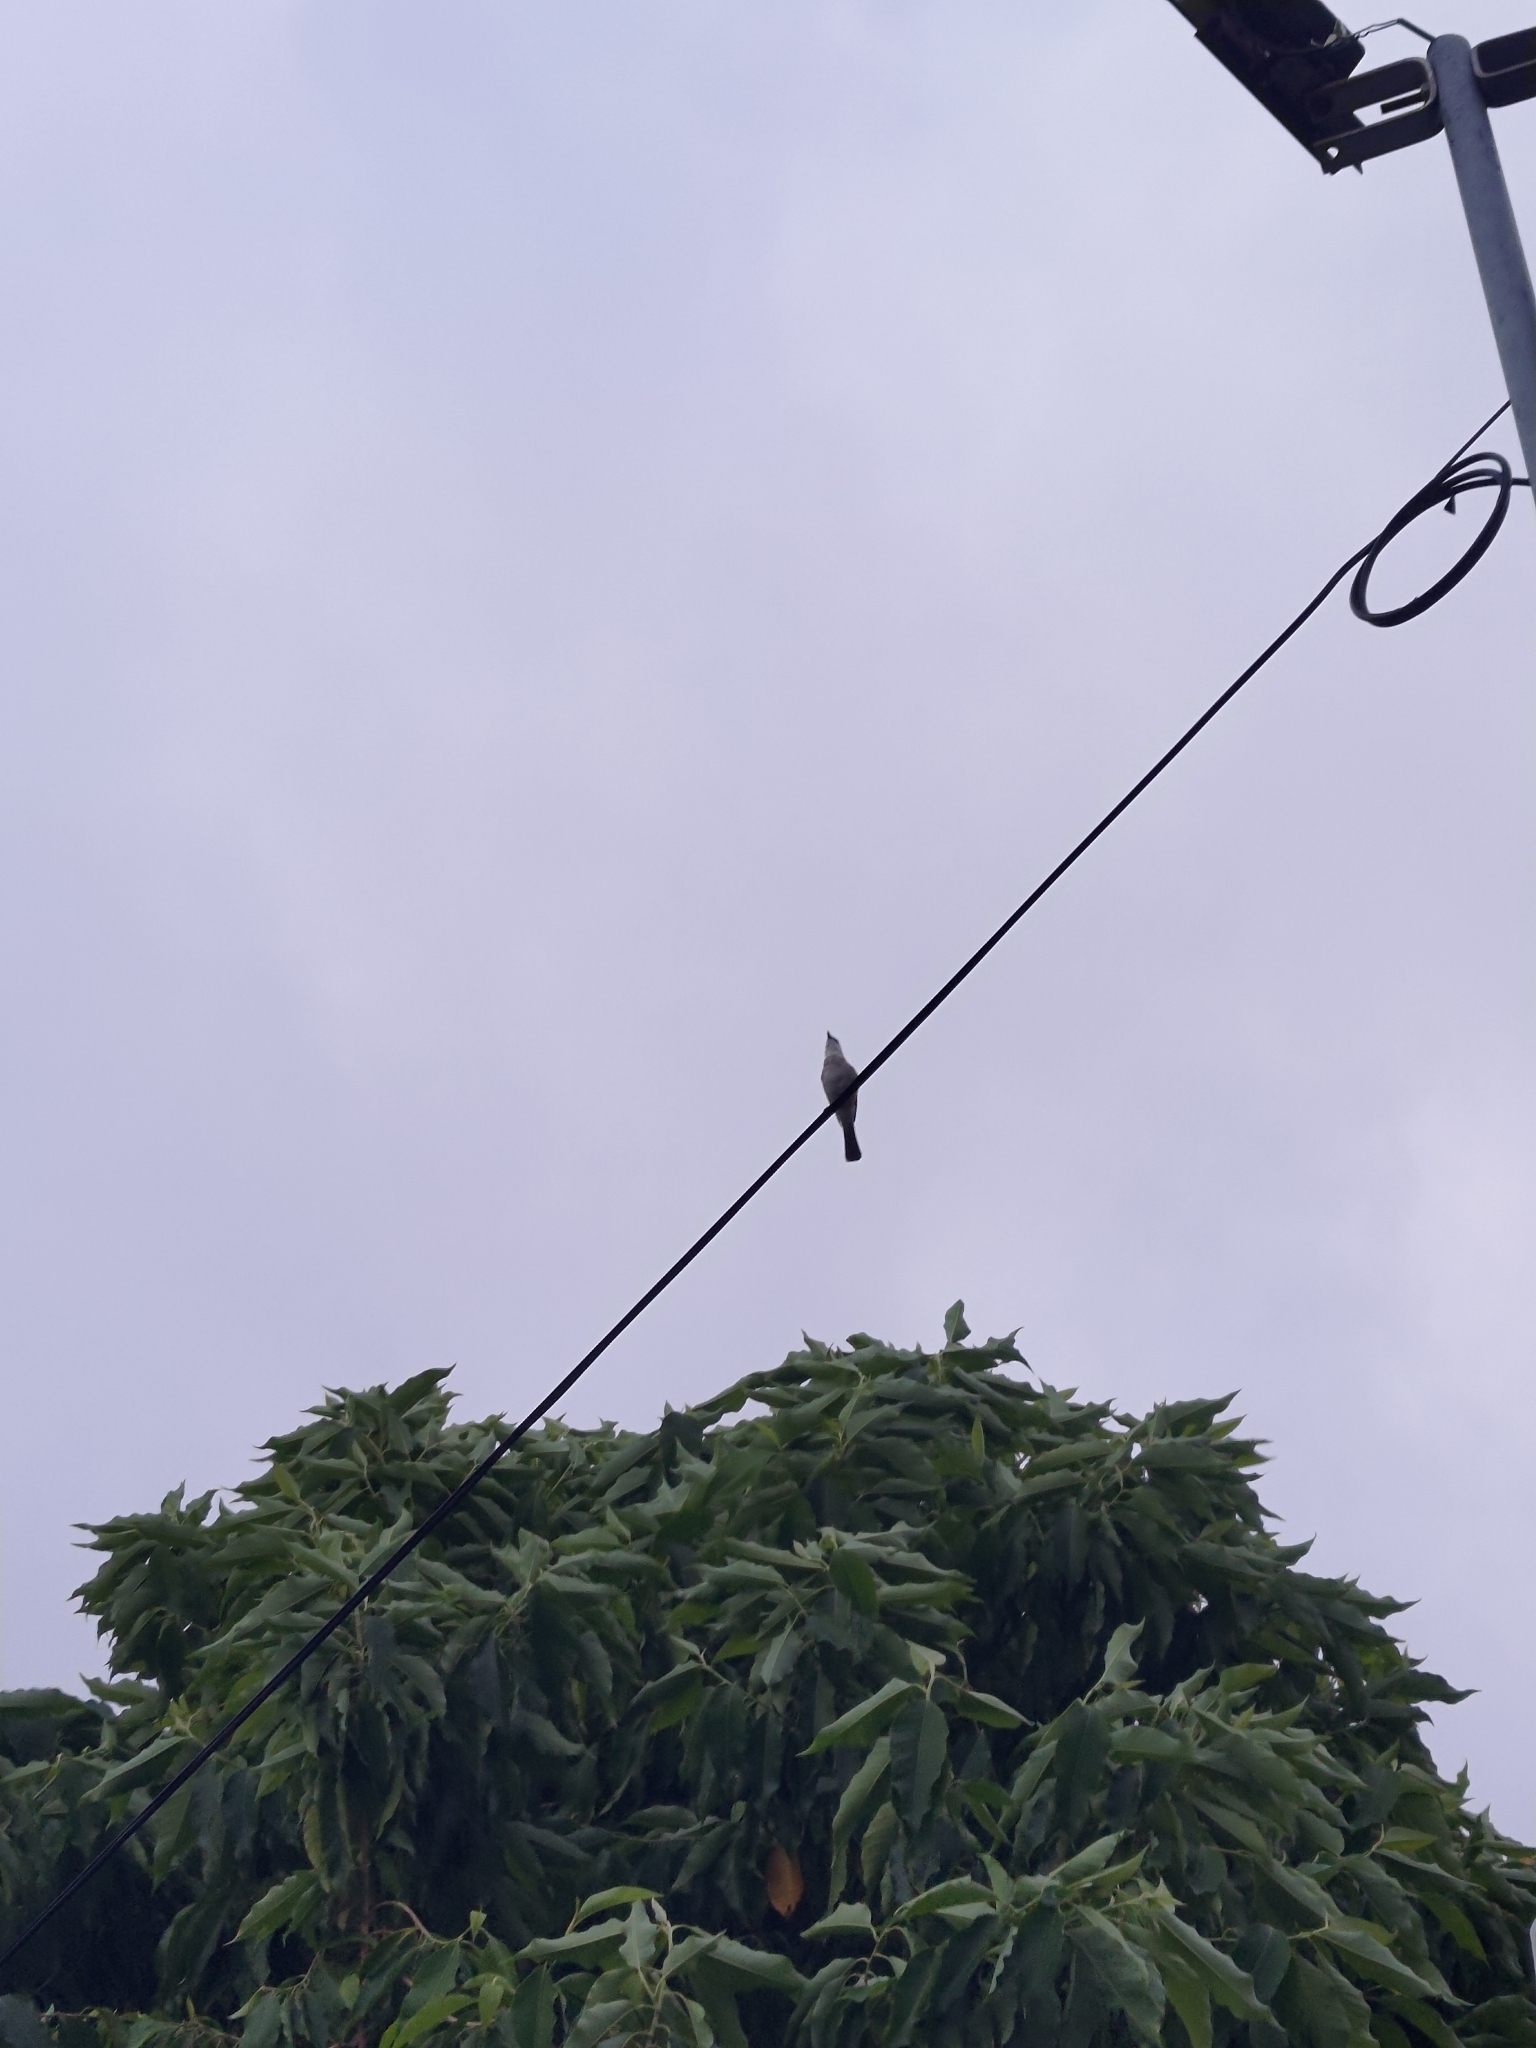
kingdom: Animalia
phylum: Chordata
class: Aves
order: Passeriformes
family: Pycnonotidae
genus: Pycnonotus
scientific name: Pycnonotus taivanus
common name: Styan's bulbul
